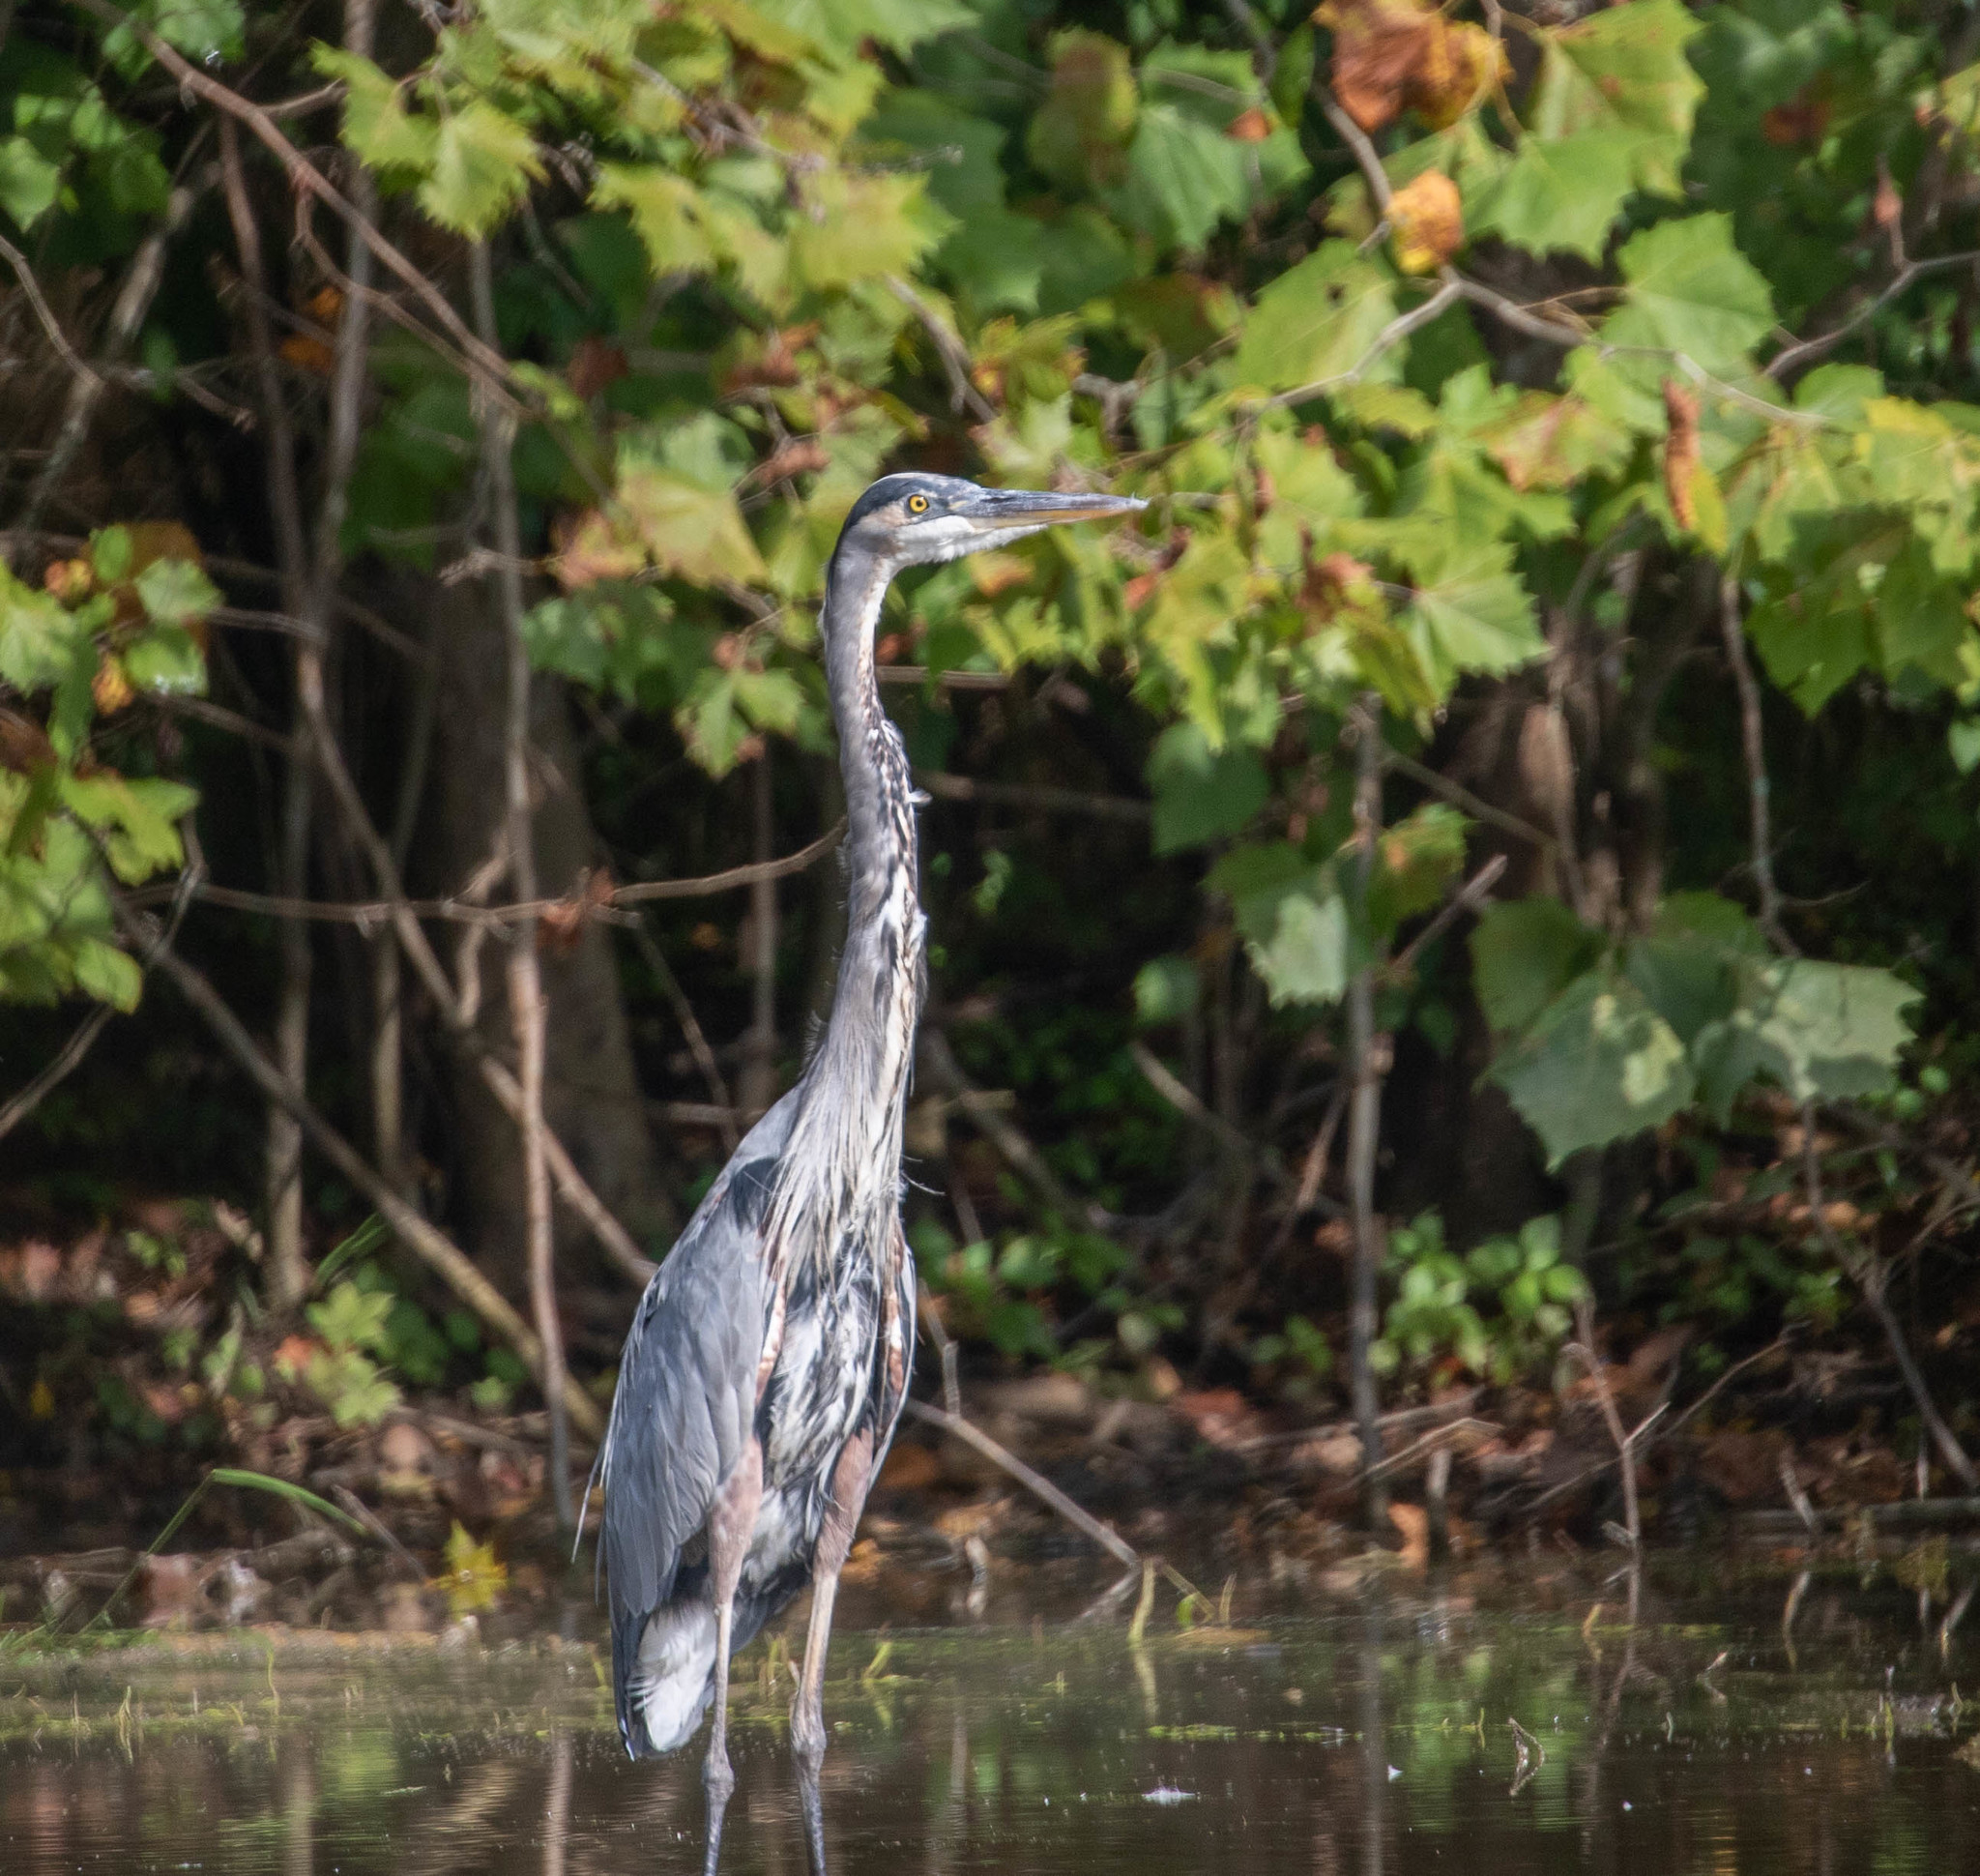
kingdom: Animalia
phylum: Chordata
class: Aves
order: Pelecaniformes
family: Ardeidae
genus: Ardea
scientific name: Ardea herodias
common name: Great blue heron
